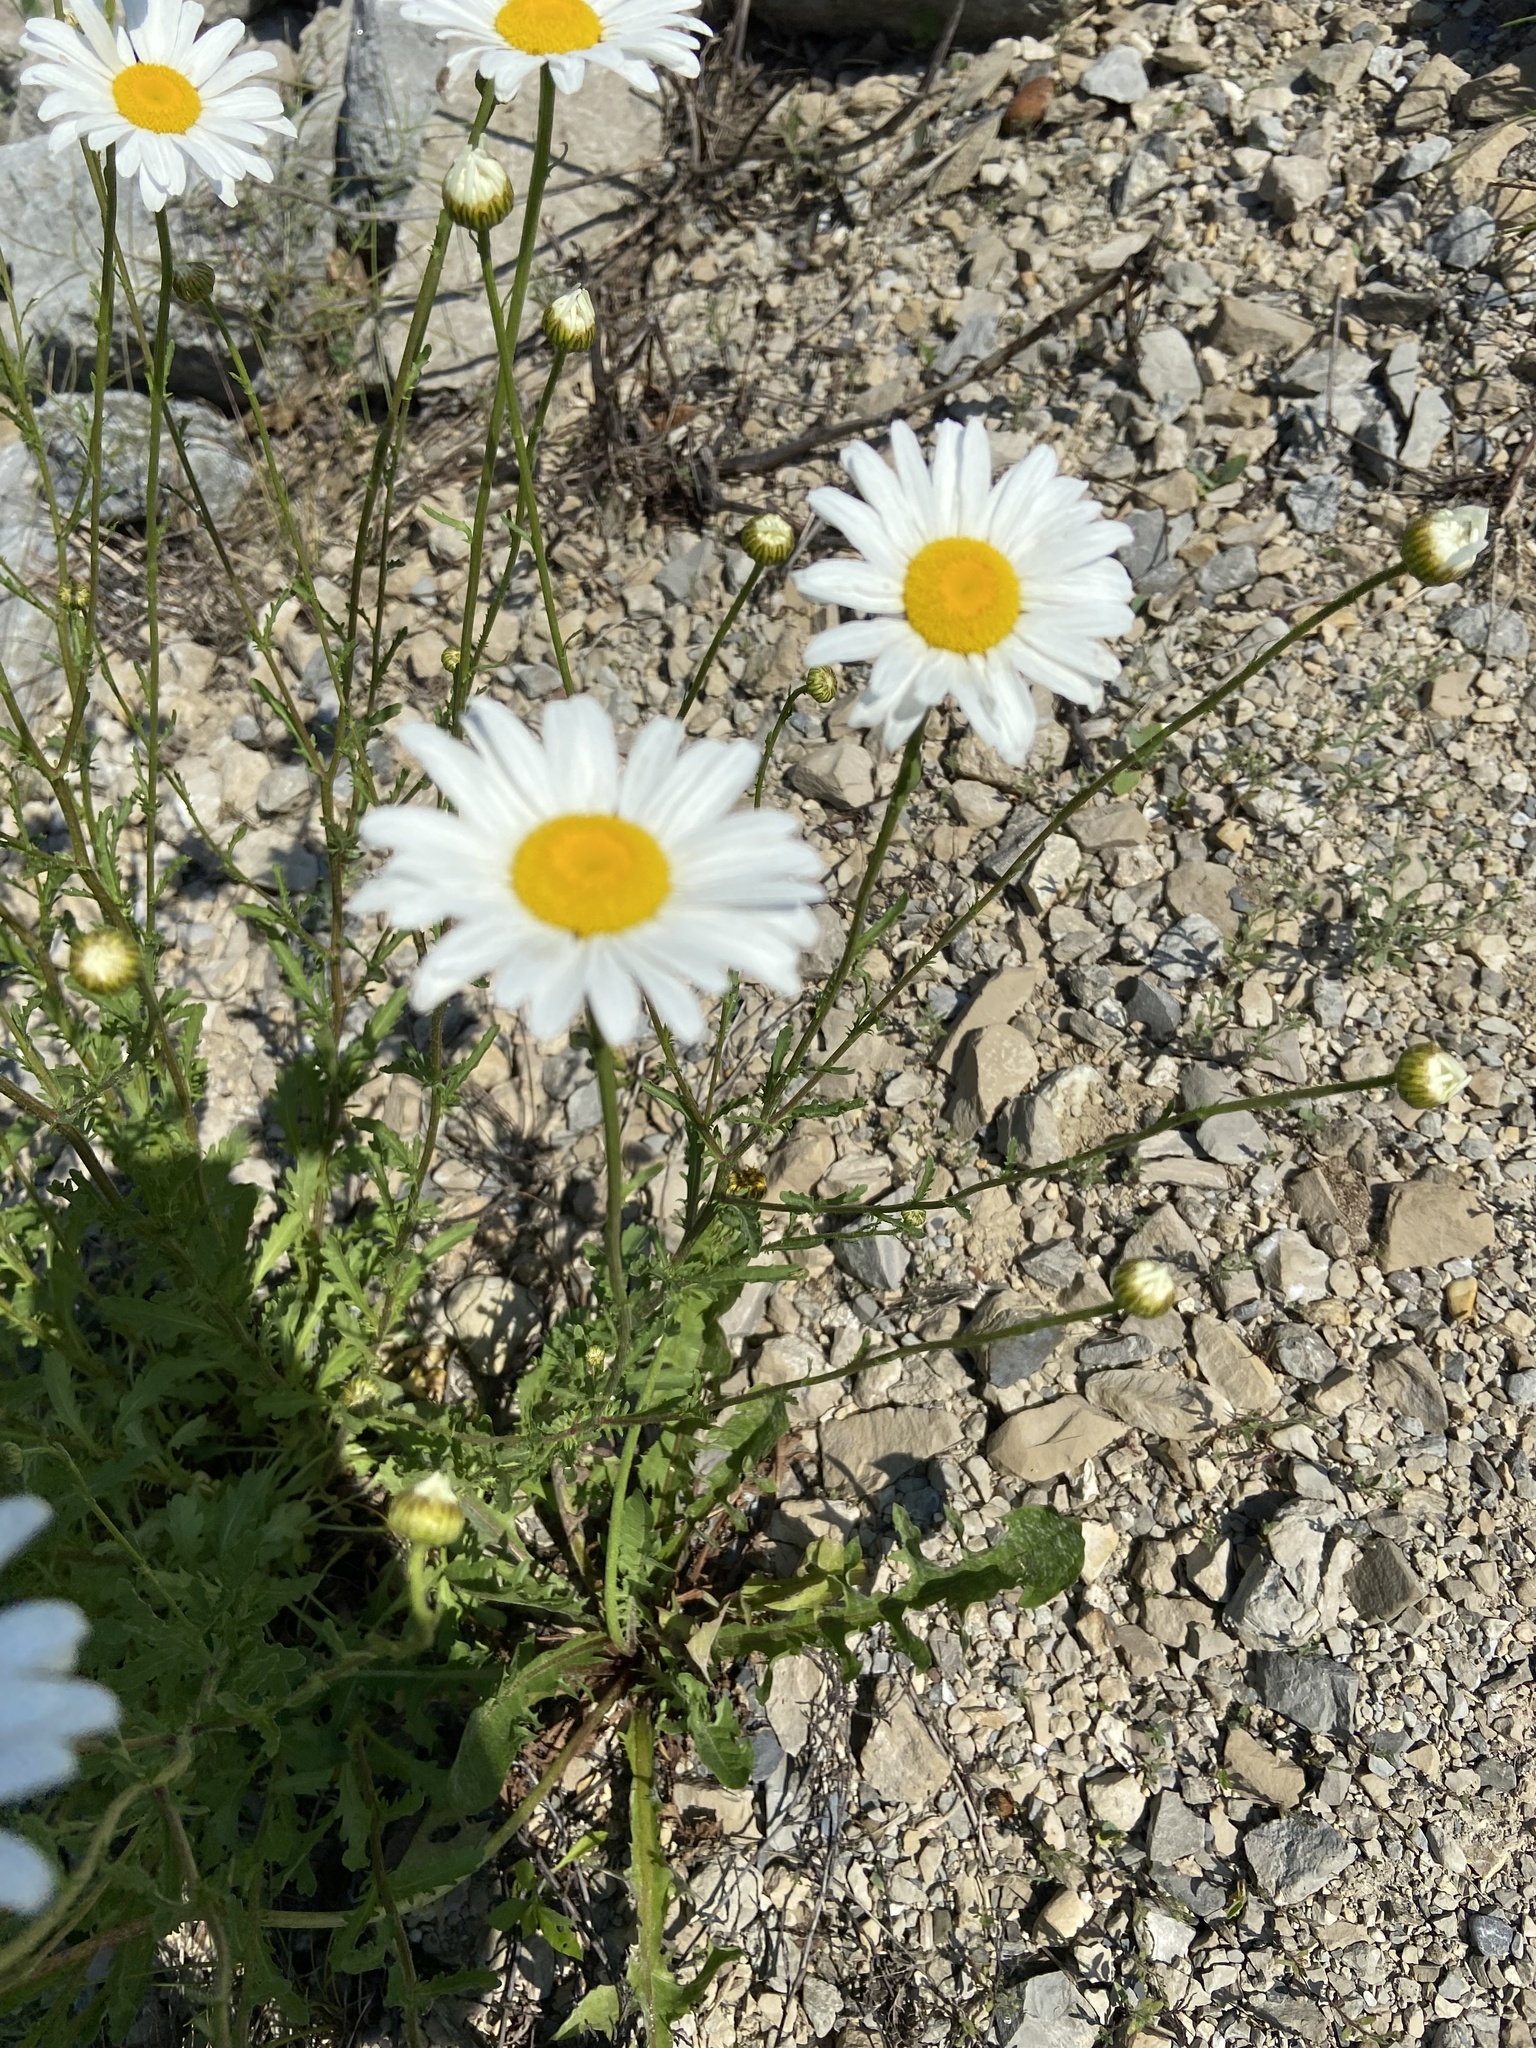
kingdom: Plantae
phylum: Tracheophyta
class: Magnoliopsida
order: Asterales
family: Asteraceae
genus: Leucanthemum
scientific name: Leucanthemum vulgare
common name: Oxeye daisy
